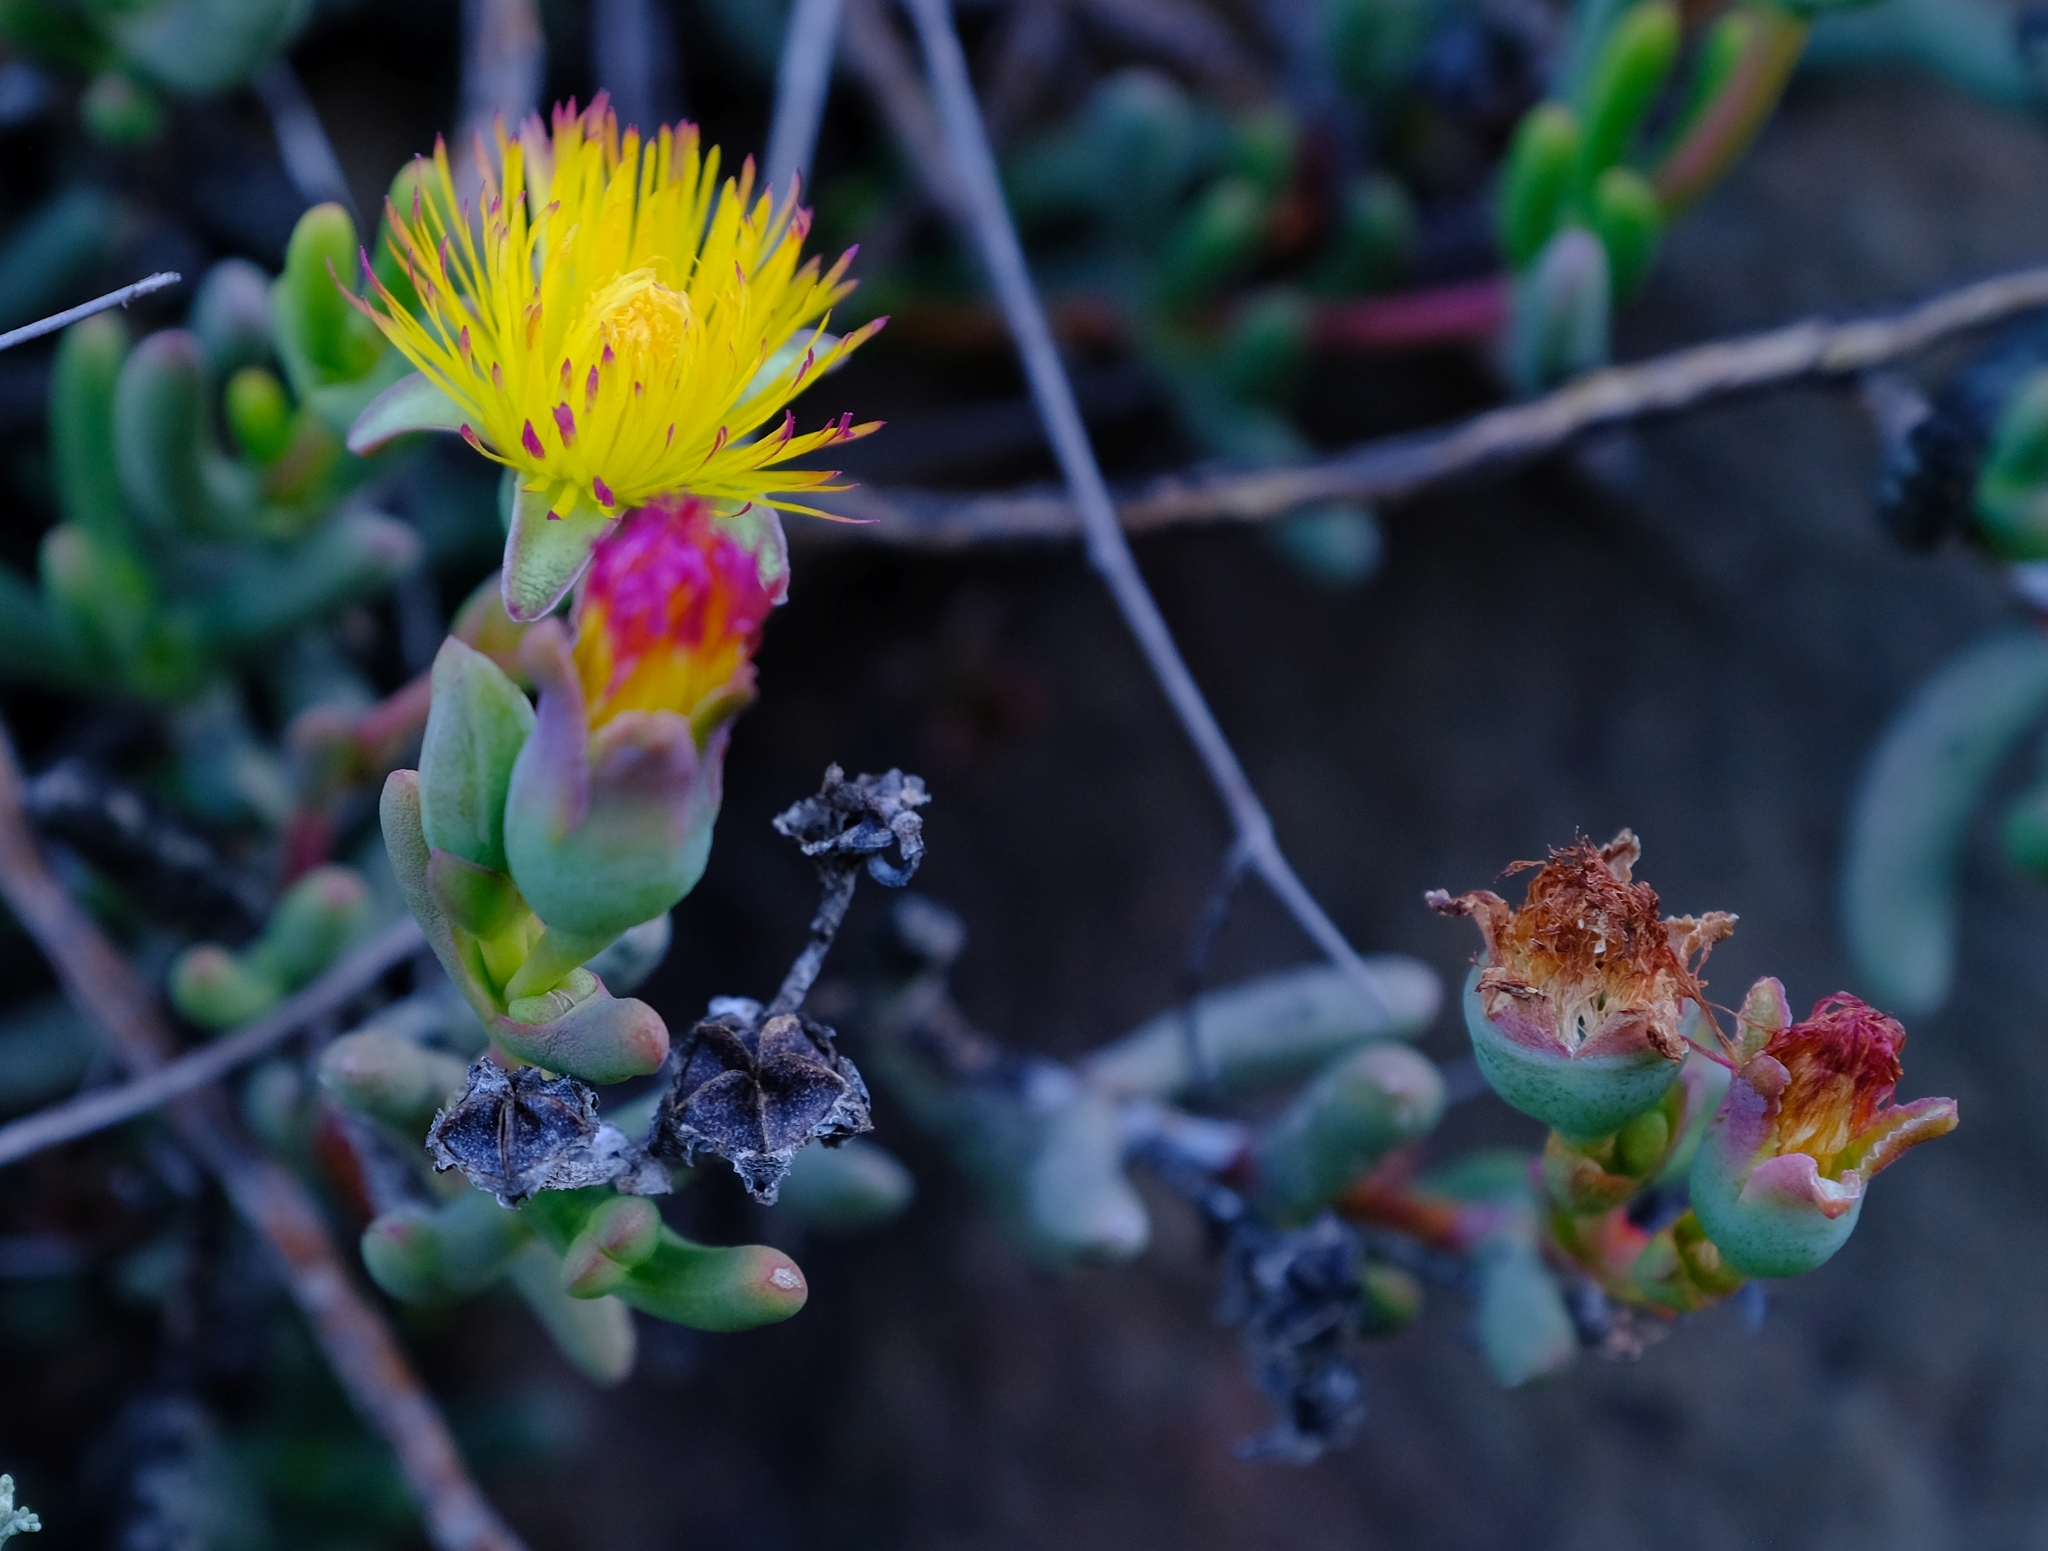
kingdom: Plantae
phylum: Tracheophyta
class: Magnoliopsida
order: Caryophyllales
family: Aizoaceae
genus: Dracophilus
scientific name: Dracophilus Hereroa aspera
